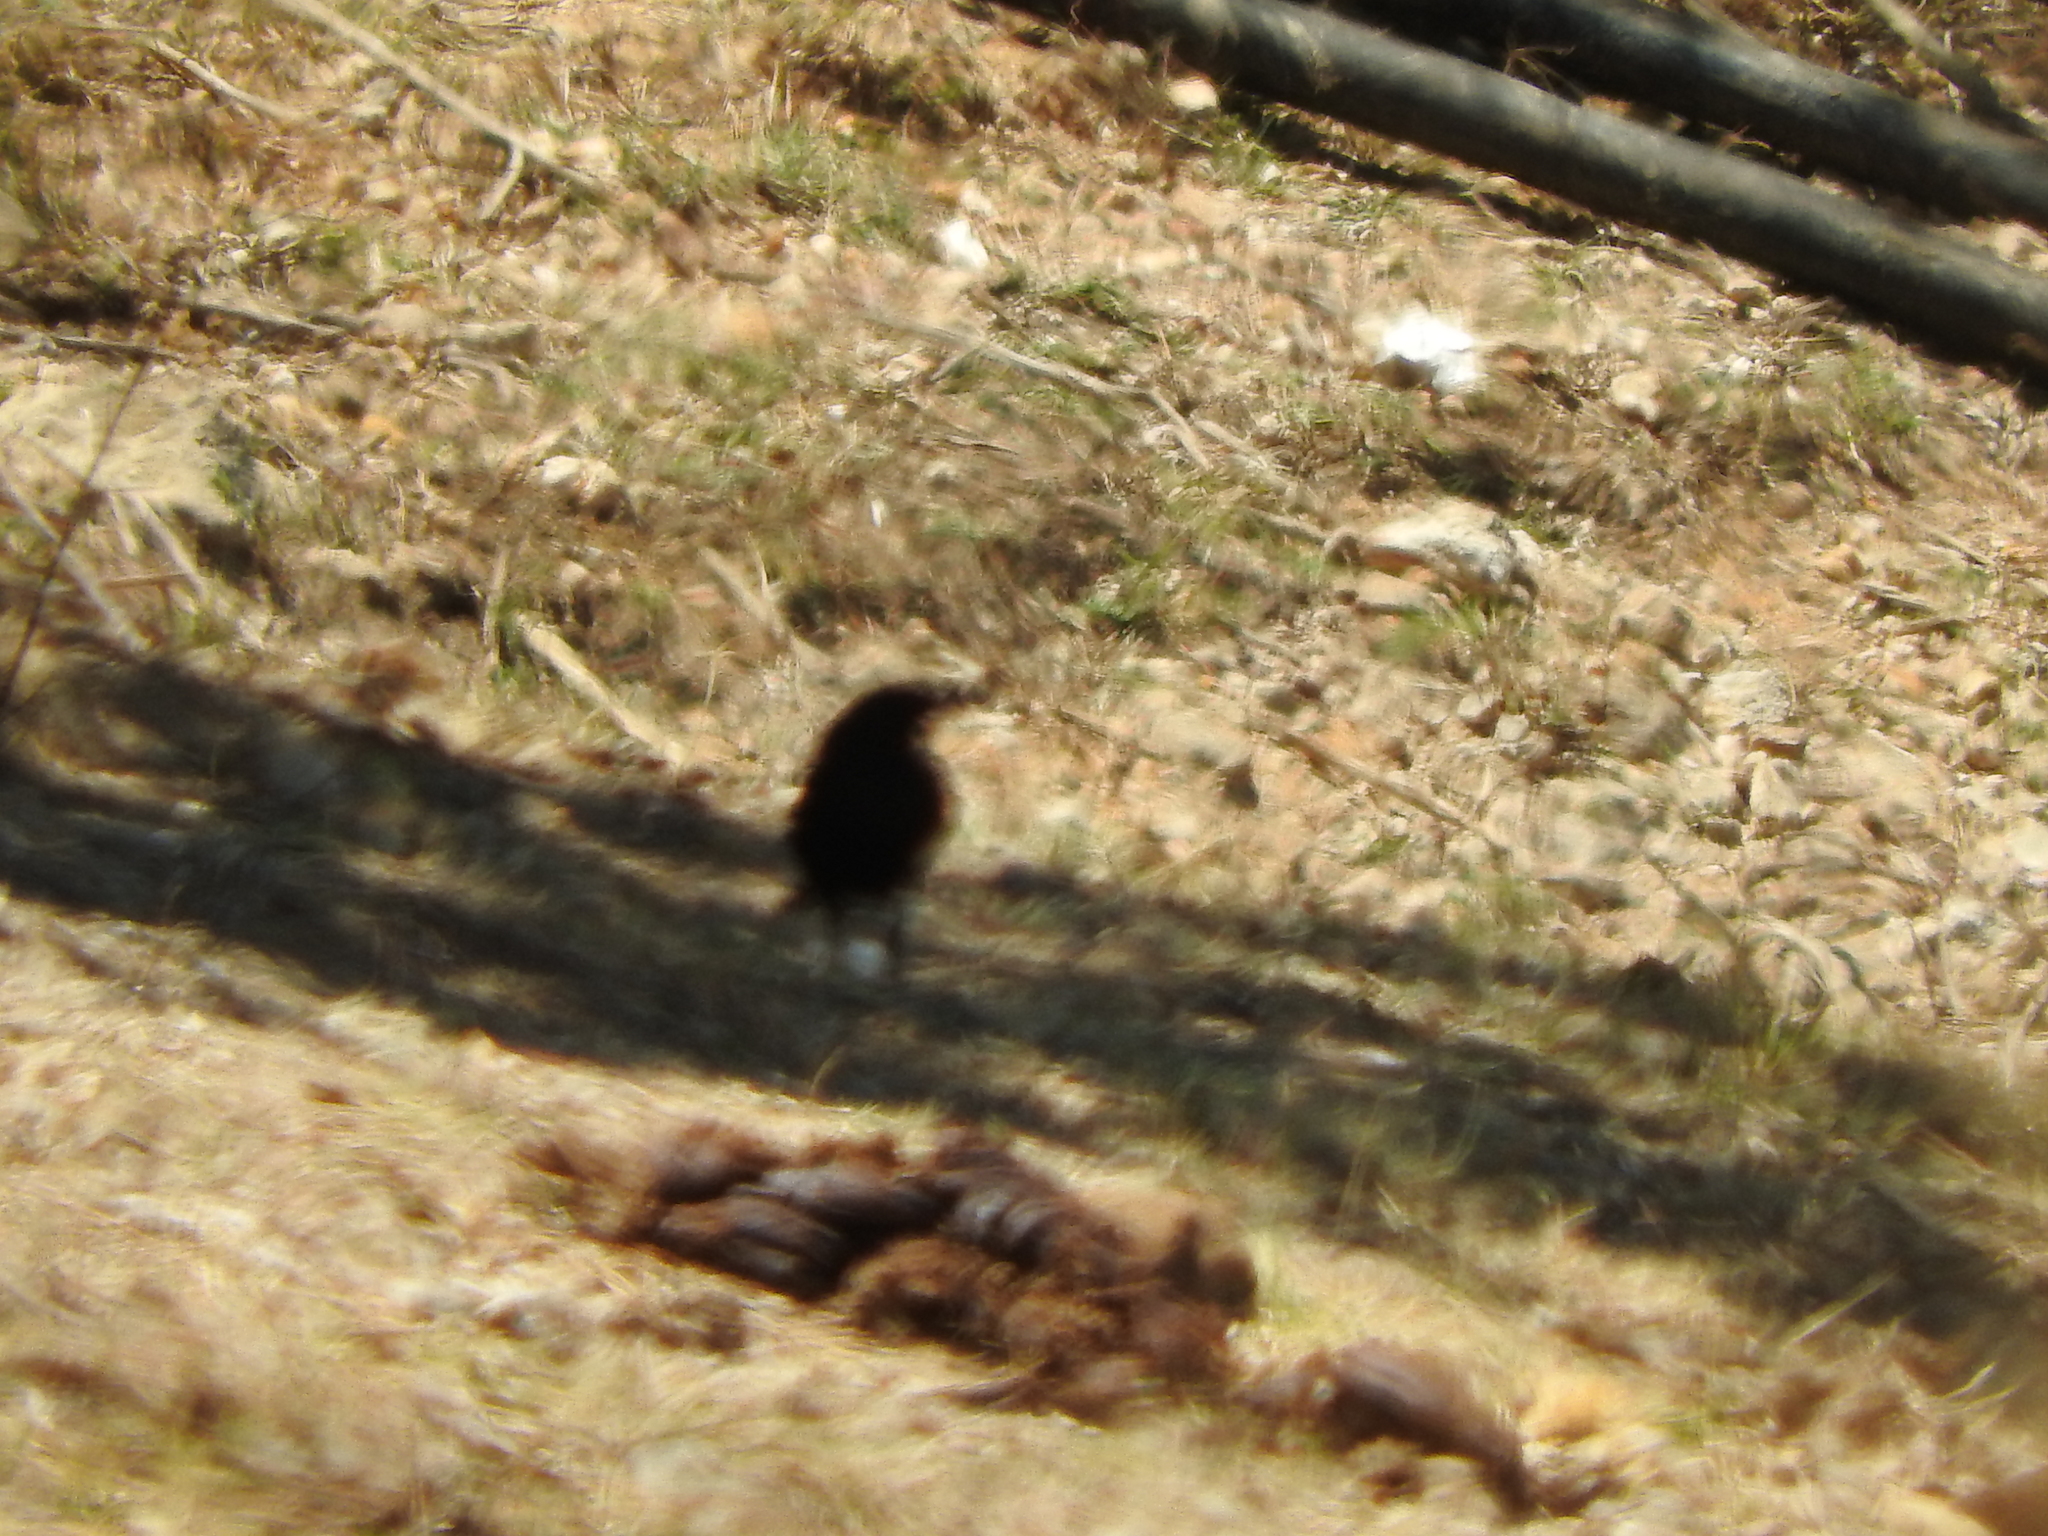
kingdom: Animalia
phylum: Chordata
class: Aves
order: Passeriformes
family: Icteridae
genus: Molothrus
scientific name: Molothrus aeneus
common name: Bronzed cowbird
